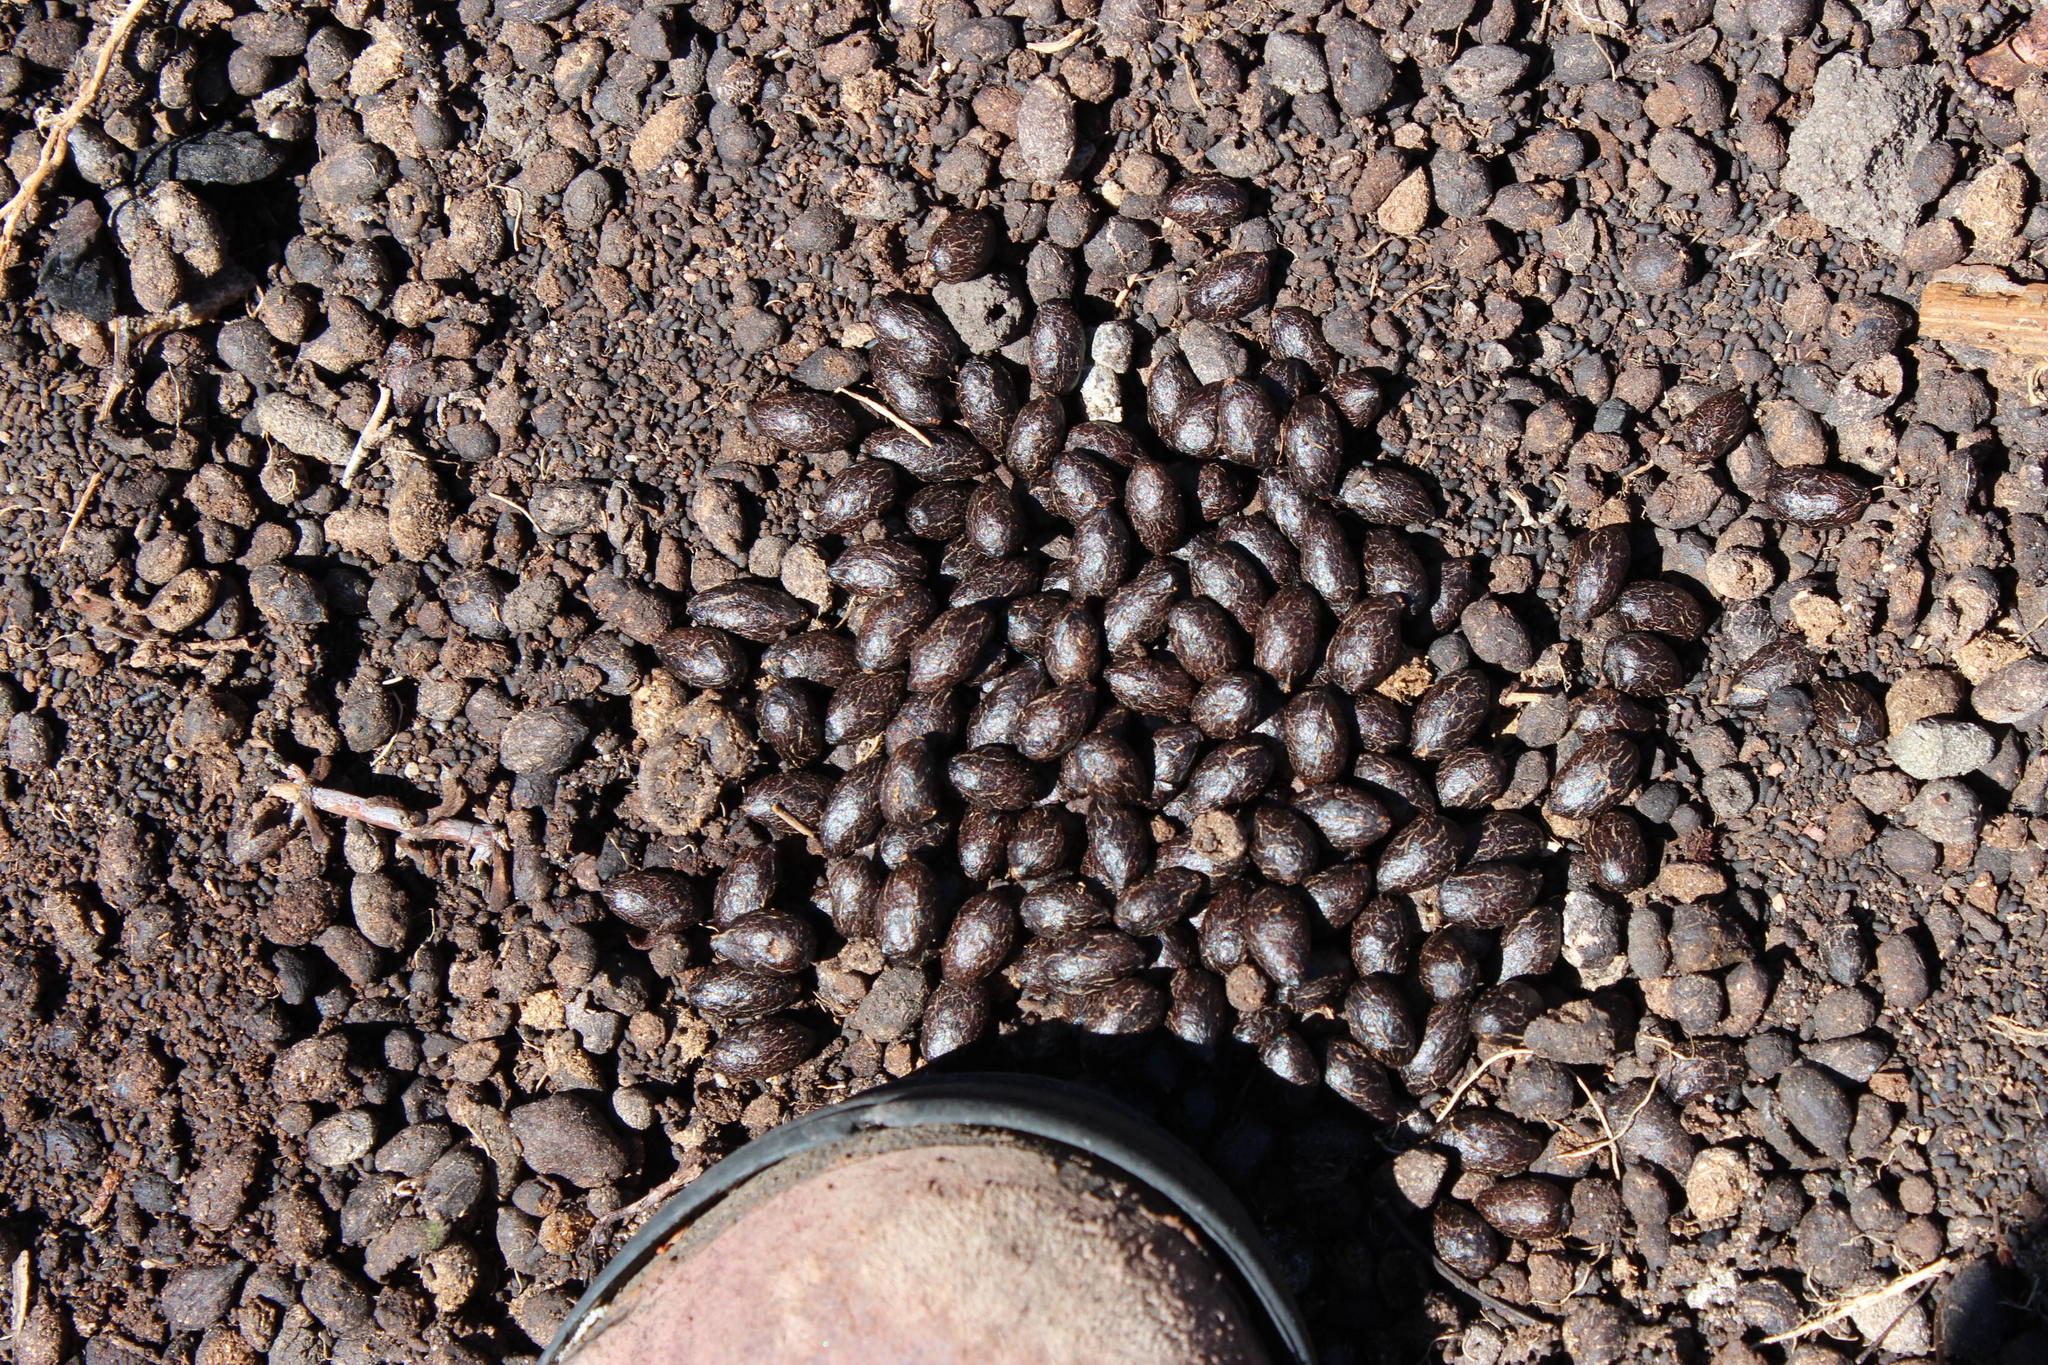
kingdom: Animalia
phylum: Chordata
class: Mammalia
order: Artiodactyla
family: Bovidae
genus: Oreotragus
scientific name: Oreotragus oreotragus
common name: Klipspringer
